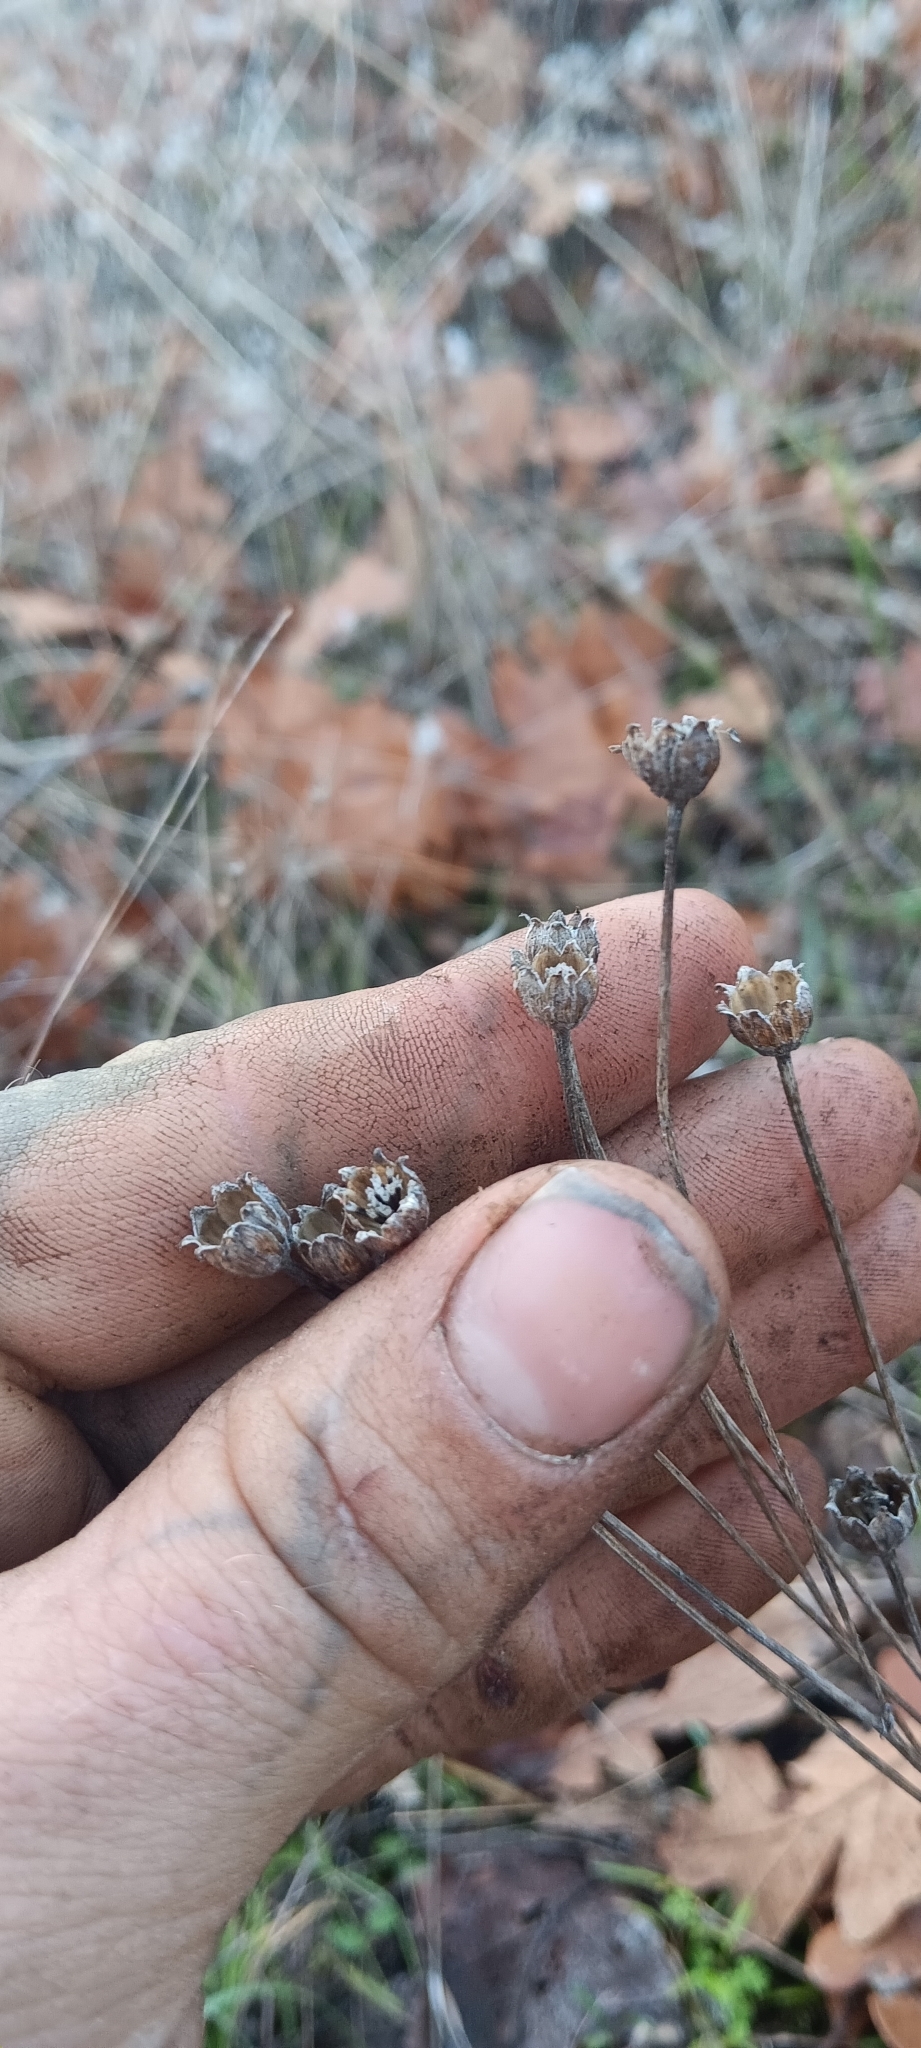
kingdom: Plantae
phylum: Tracheophyta
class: Magnoliopsida
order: Asterales
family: Asteraceae
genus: Eriophyllum
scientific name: Eriophyllum lanatum
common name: Common woolly-sunflower
